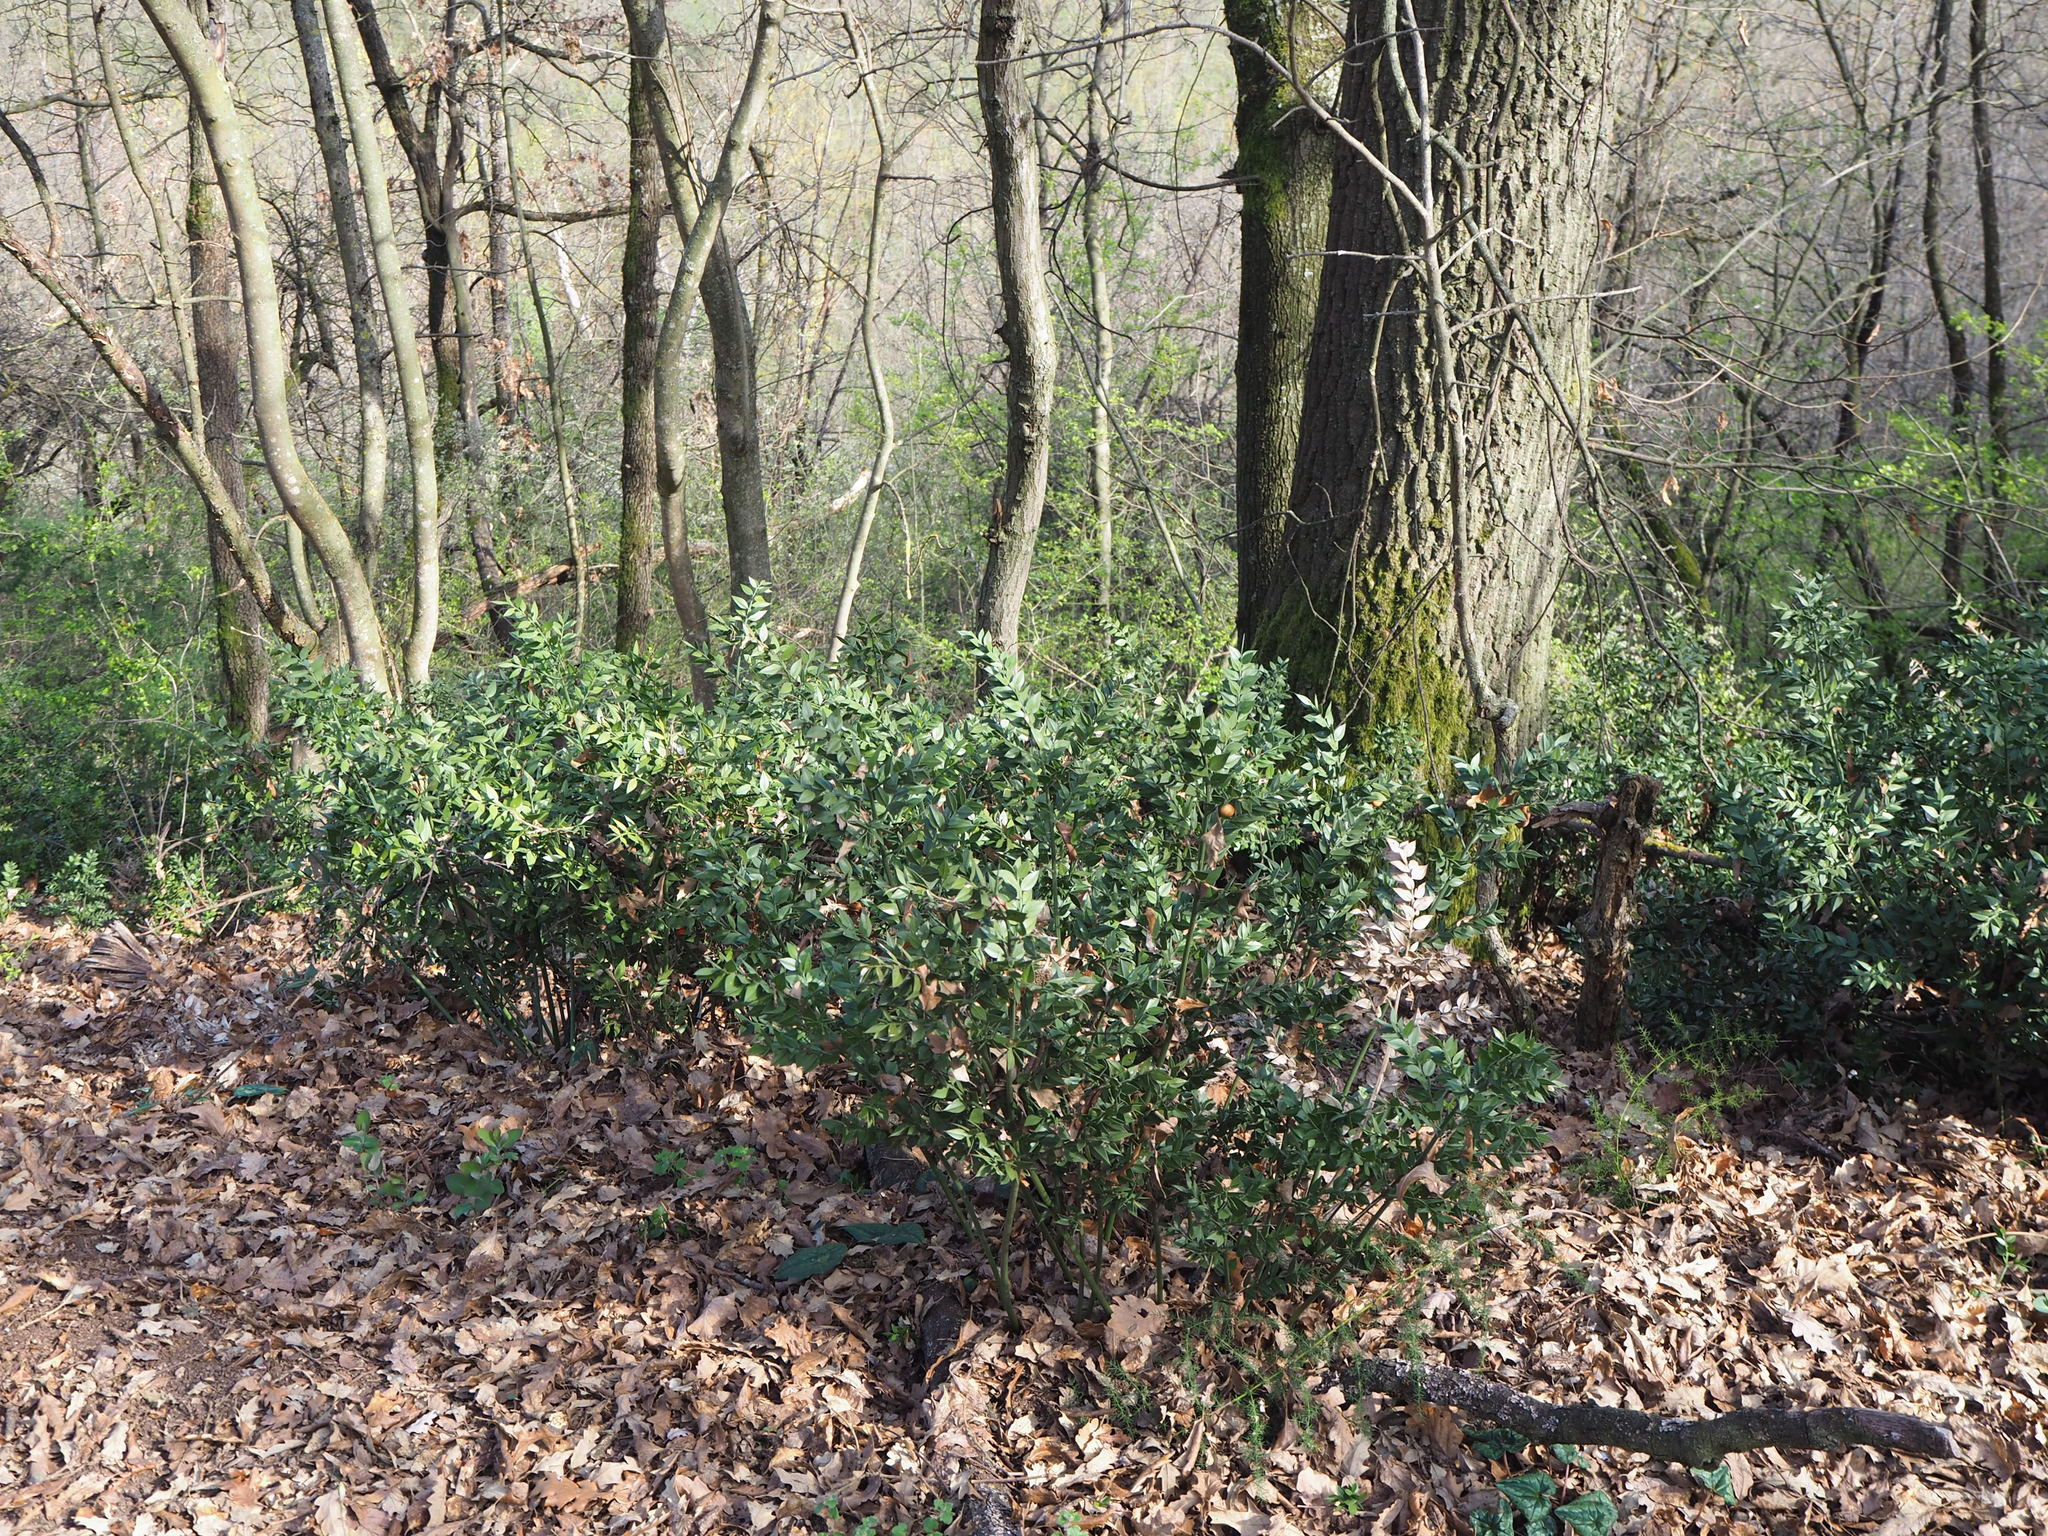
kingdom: Plantae
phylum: Tracheophyta
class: Liliopsida
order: Asparagales
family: Asparagaceae
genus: Ruscus
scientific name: Ruscus aculeatus
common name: Butcher's-broom
